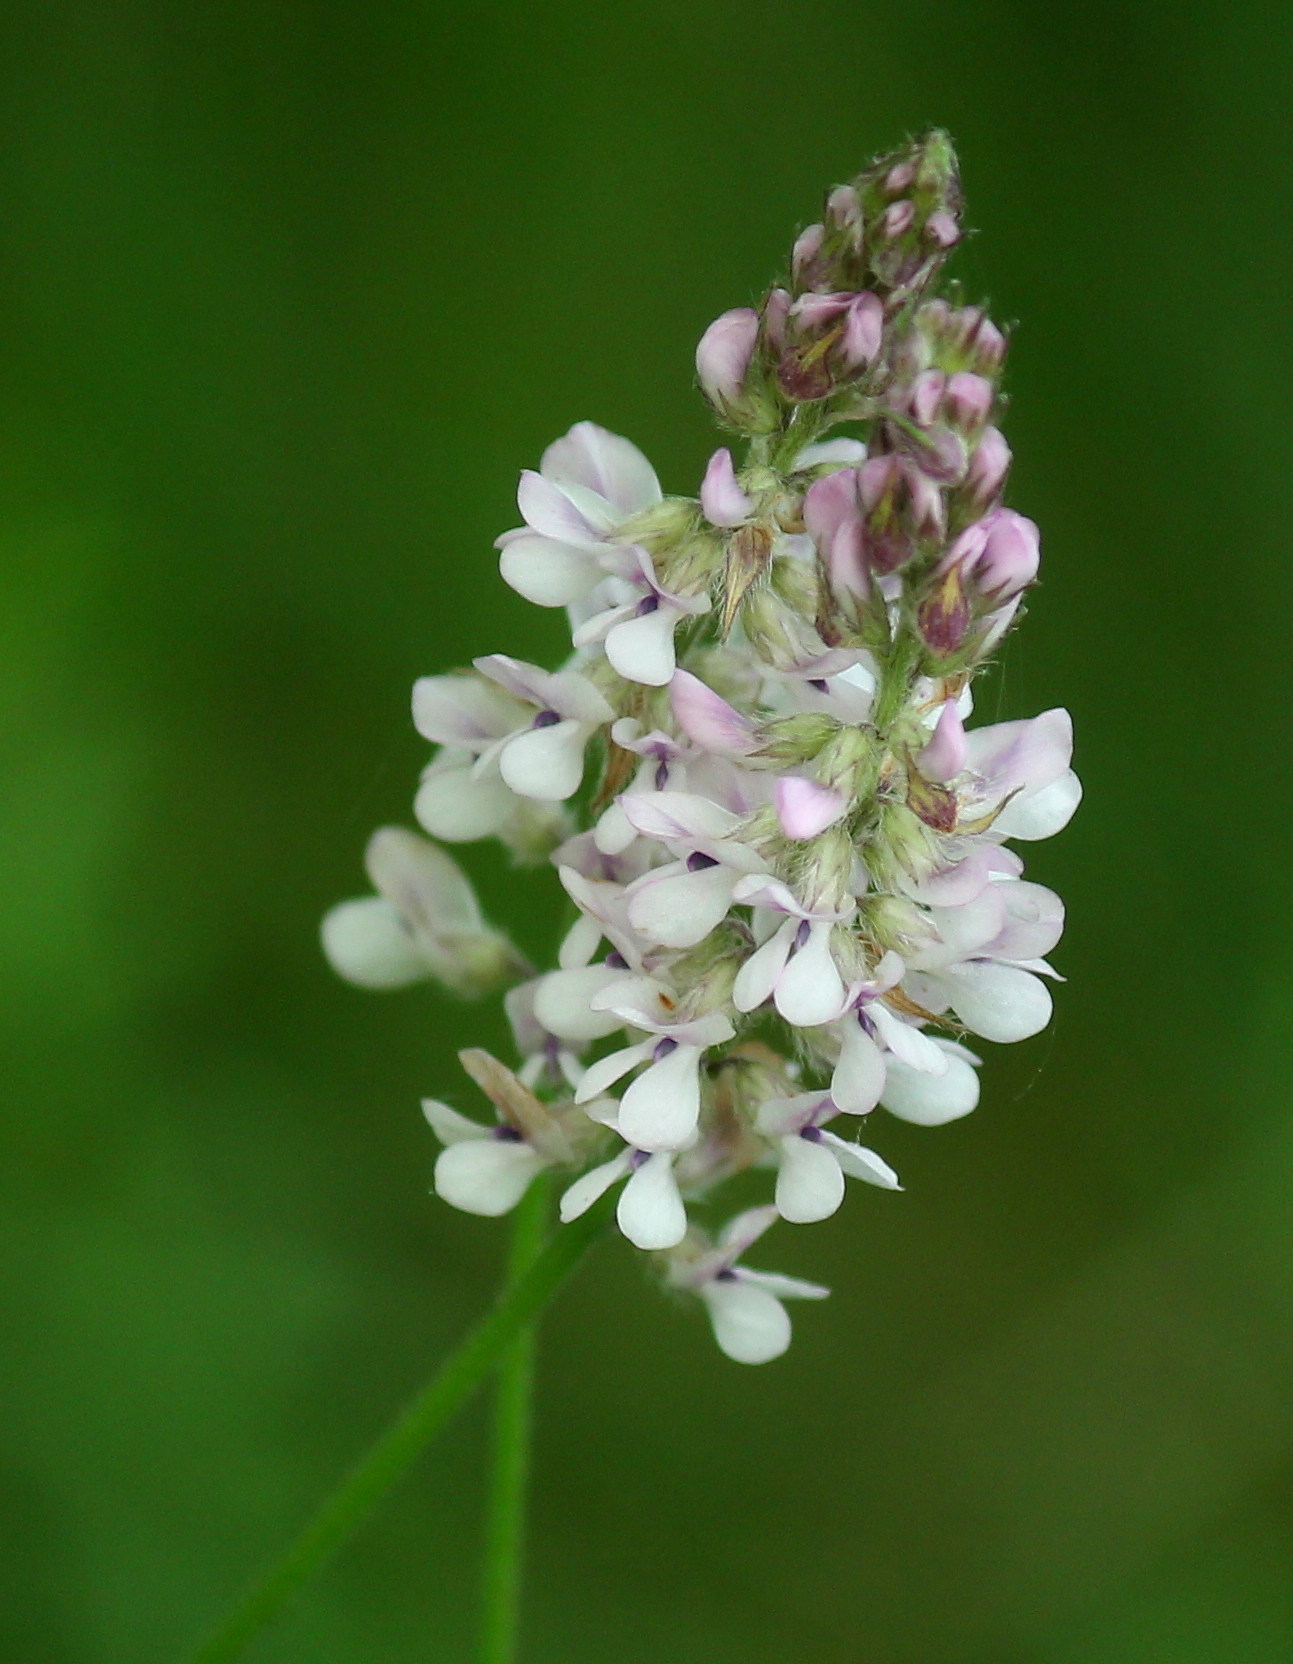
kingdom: Plantae
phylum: Tracheophyta
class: Magnoliopsida
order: Fabales
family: Fabaceae
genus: Orbexilum
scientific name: Orbexilum pedunculatum
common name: Sampson's snakeroot
